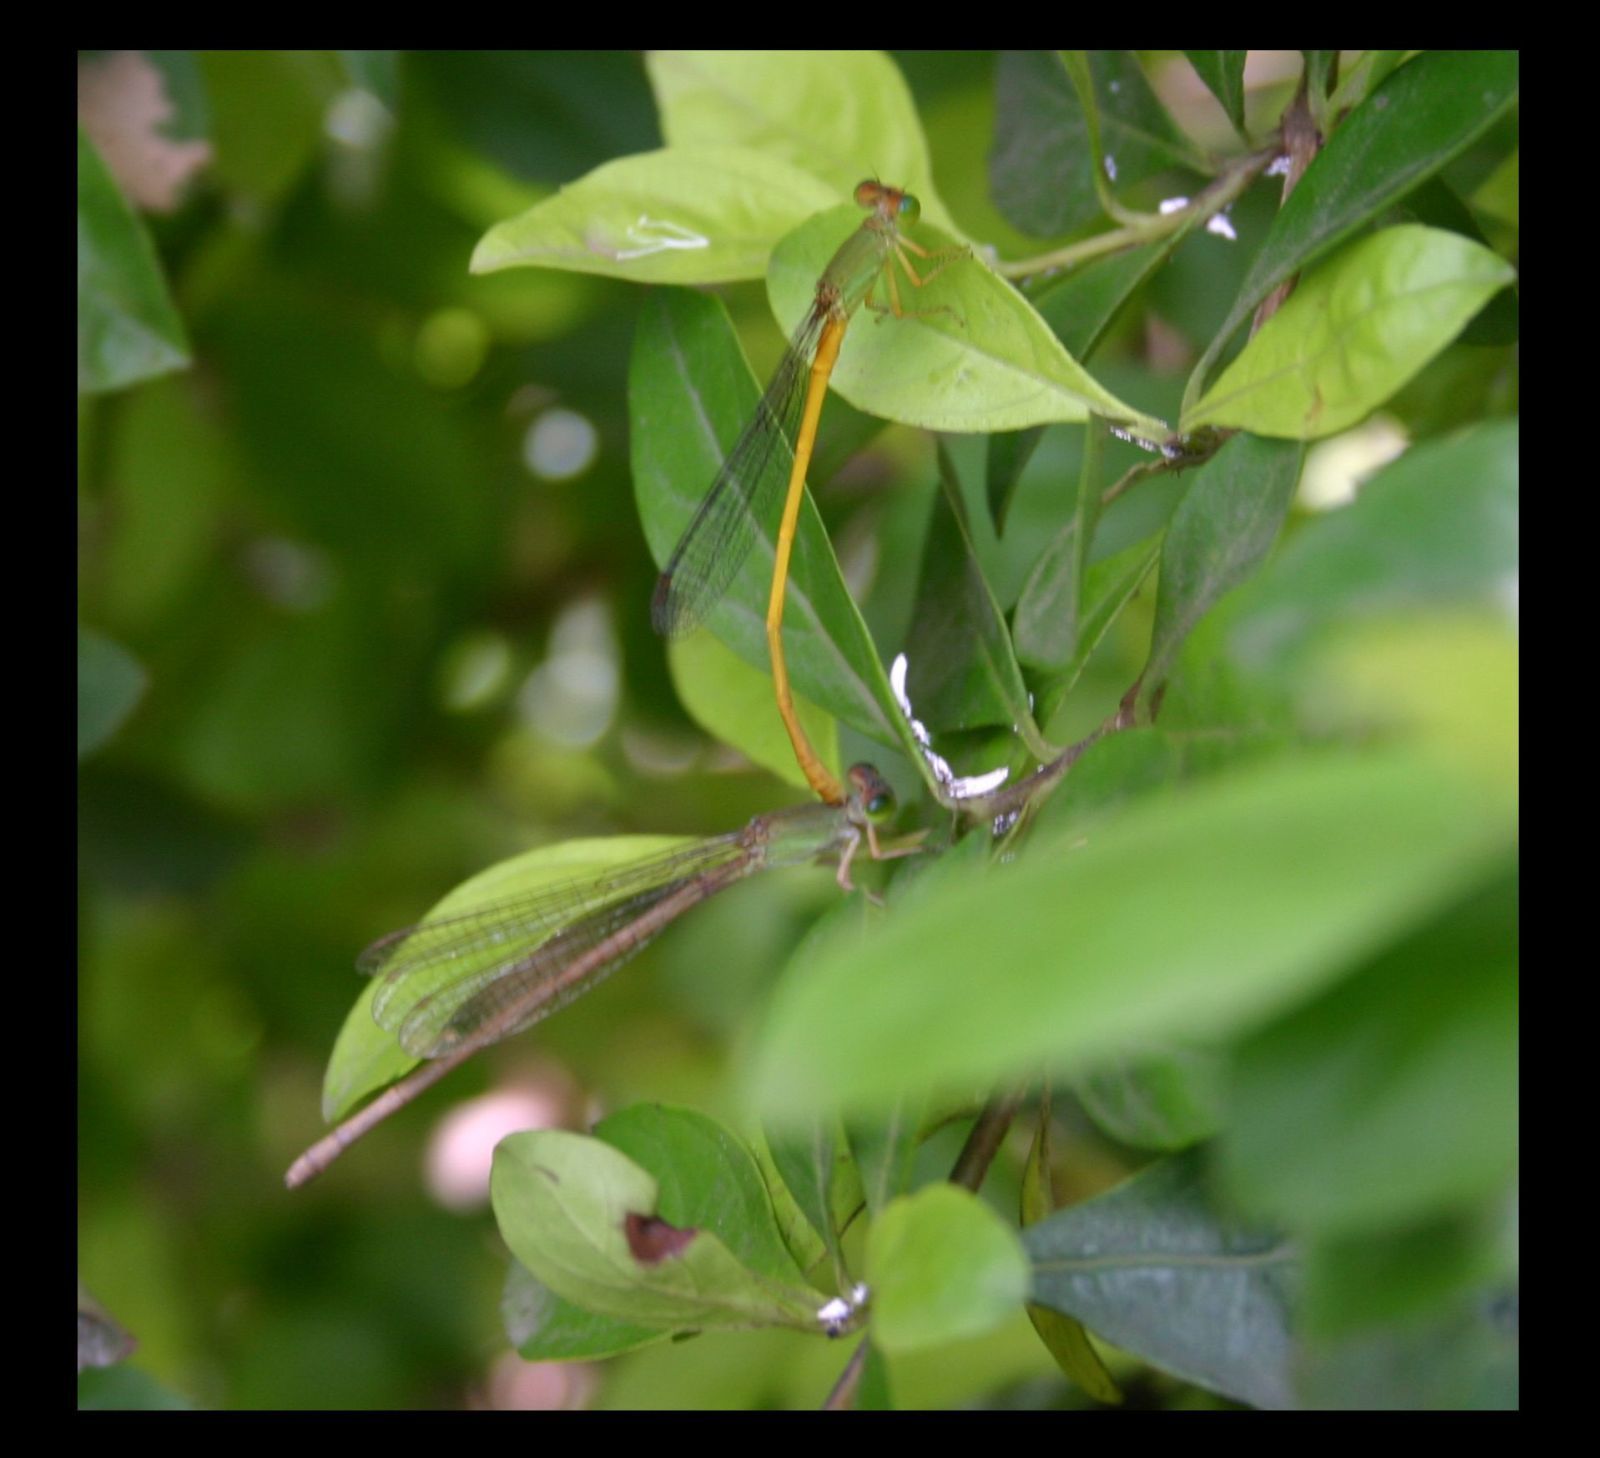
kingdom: Animalia
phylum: Arthropoda
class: Insecta
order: Odonata
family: Coenagrionidae
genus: Ceriagrion
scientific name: Ceriagrion coromandelianum
